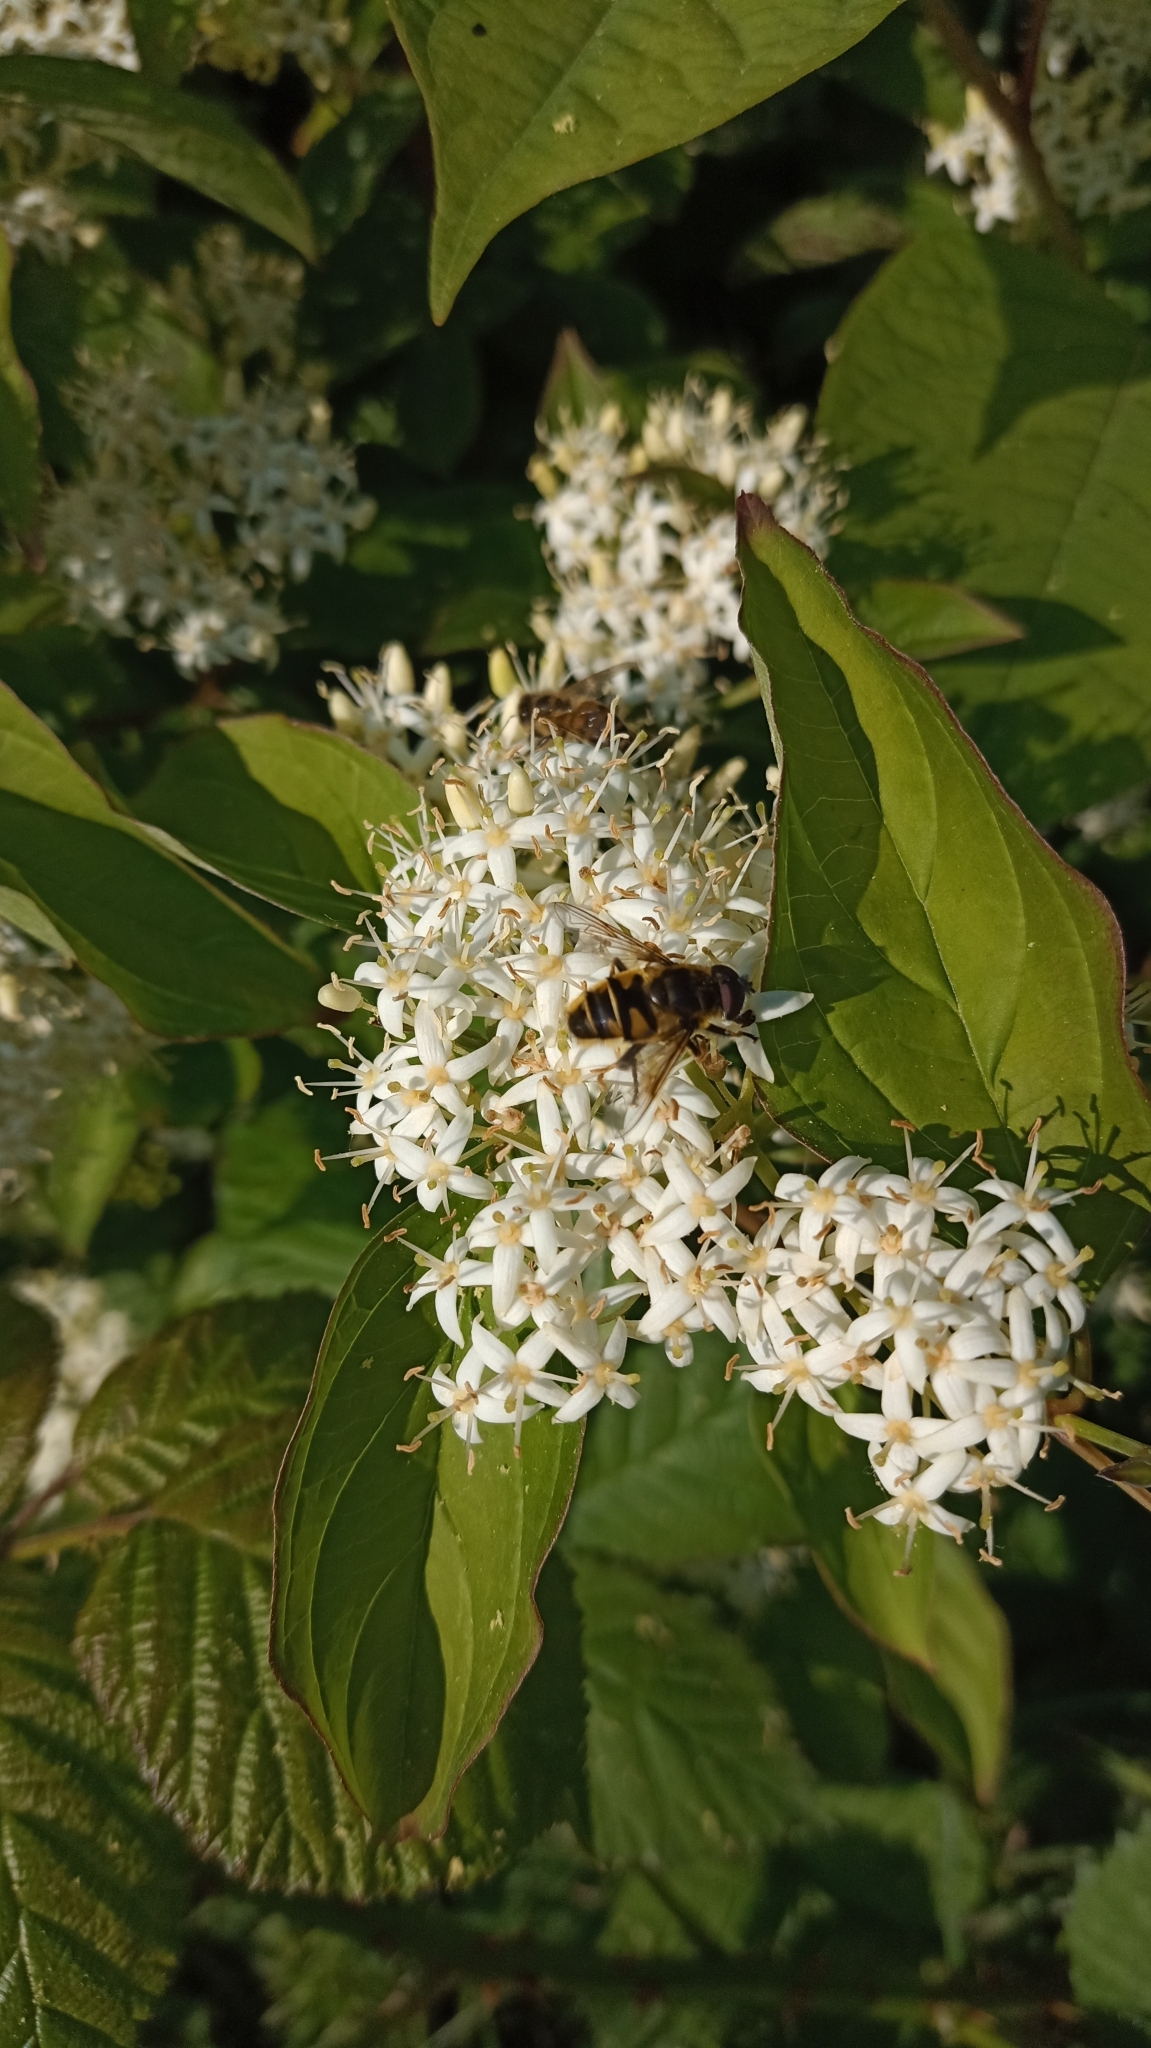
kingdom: Animalia
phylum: Arthropoda
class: Insecta
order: Diptera
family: Syrphidae
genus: Myathropa
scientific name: Myathropa florea
